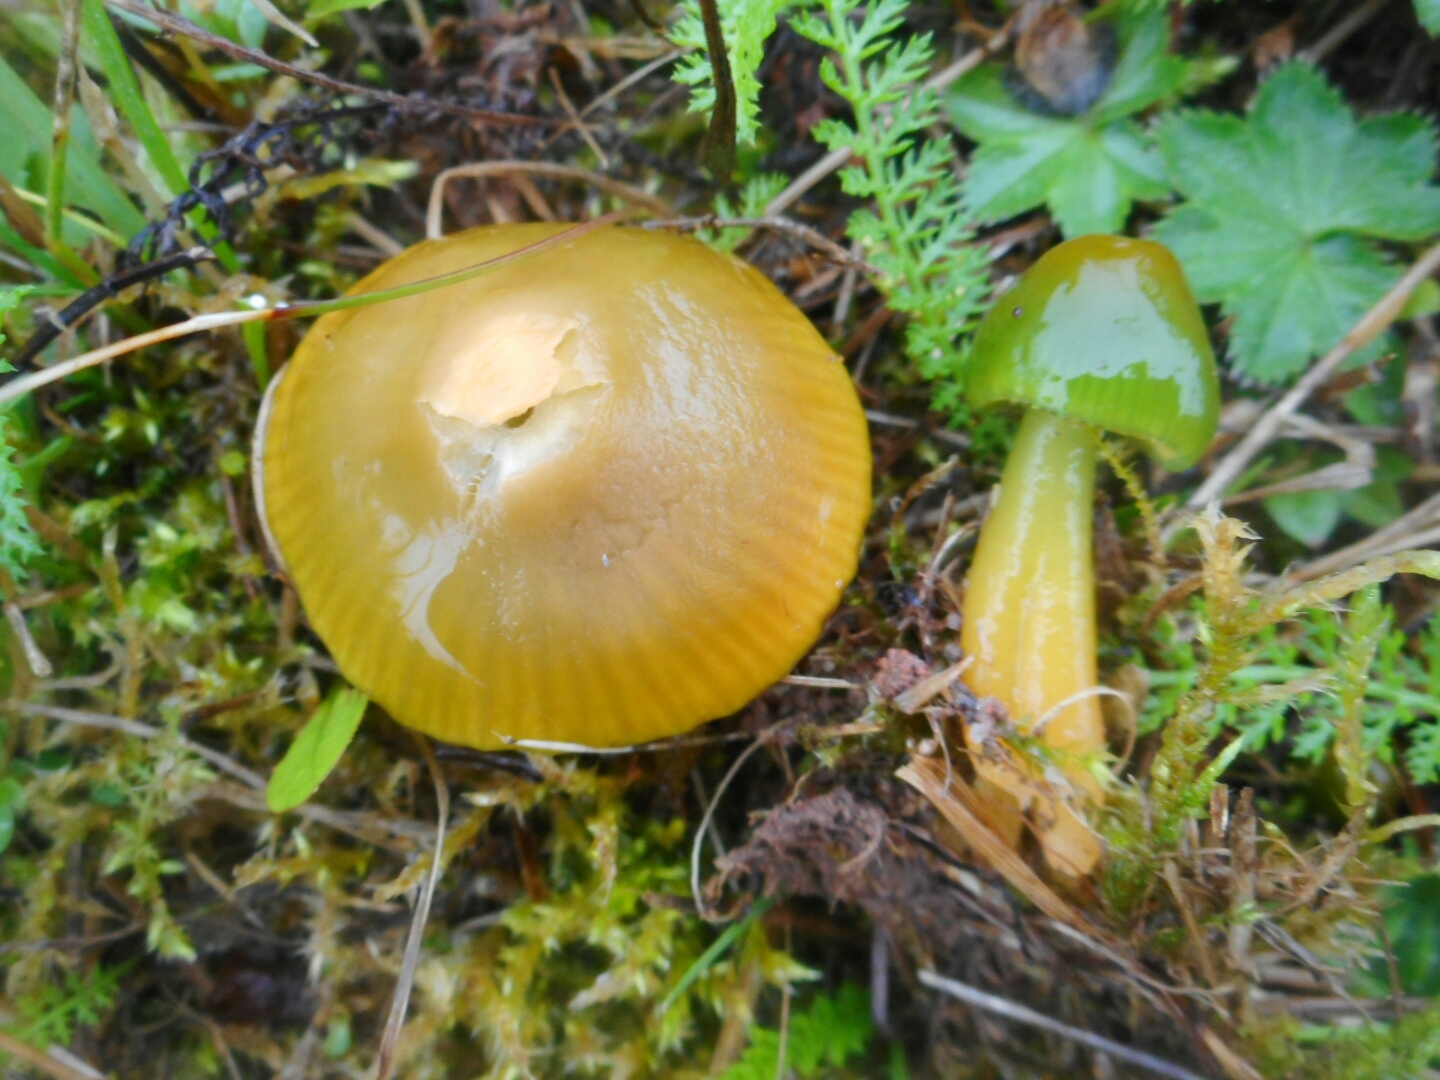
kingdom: Fungi
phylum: Basidiomycota
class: Agaricomycetes
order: Agaricales
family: Hygrophoraceae
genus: Gliophorus
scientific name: Gliophorus psittacinus
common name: Parrot wax-cap
